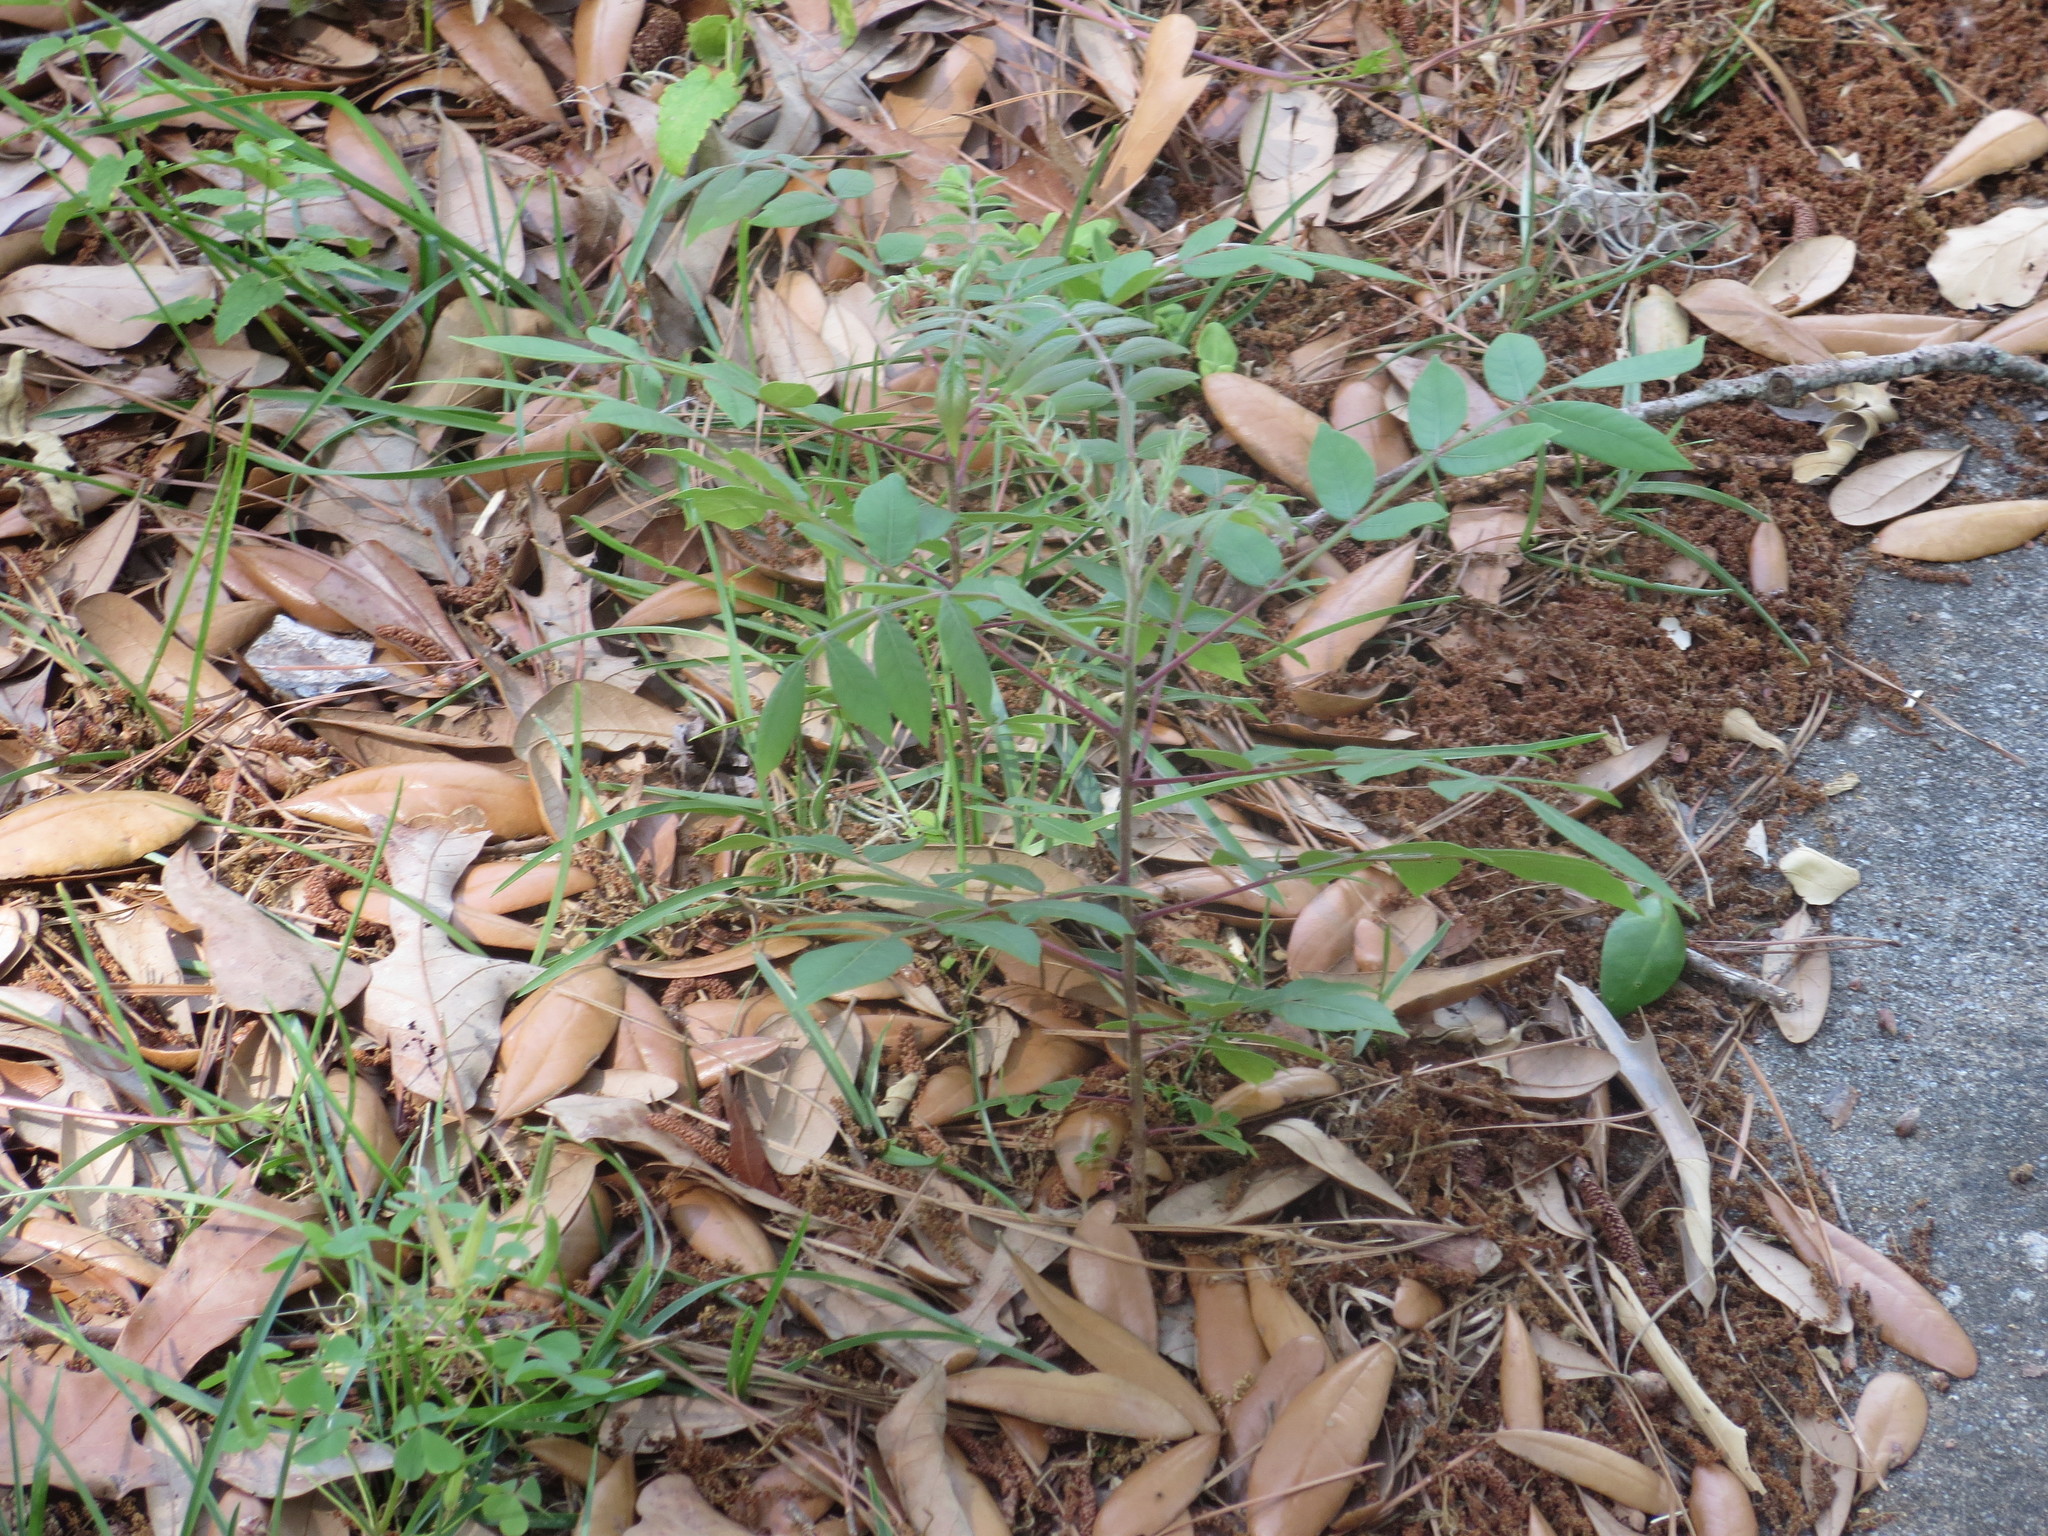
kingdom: Plantae
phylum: Tracheophyta
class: Magnoliopsida
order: Sapindales
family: Anacardiaceae
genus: Rhus
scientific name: Rhus copallina
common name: Shining sumac
